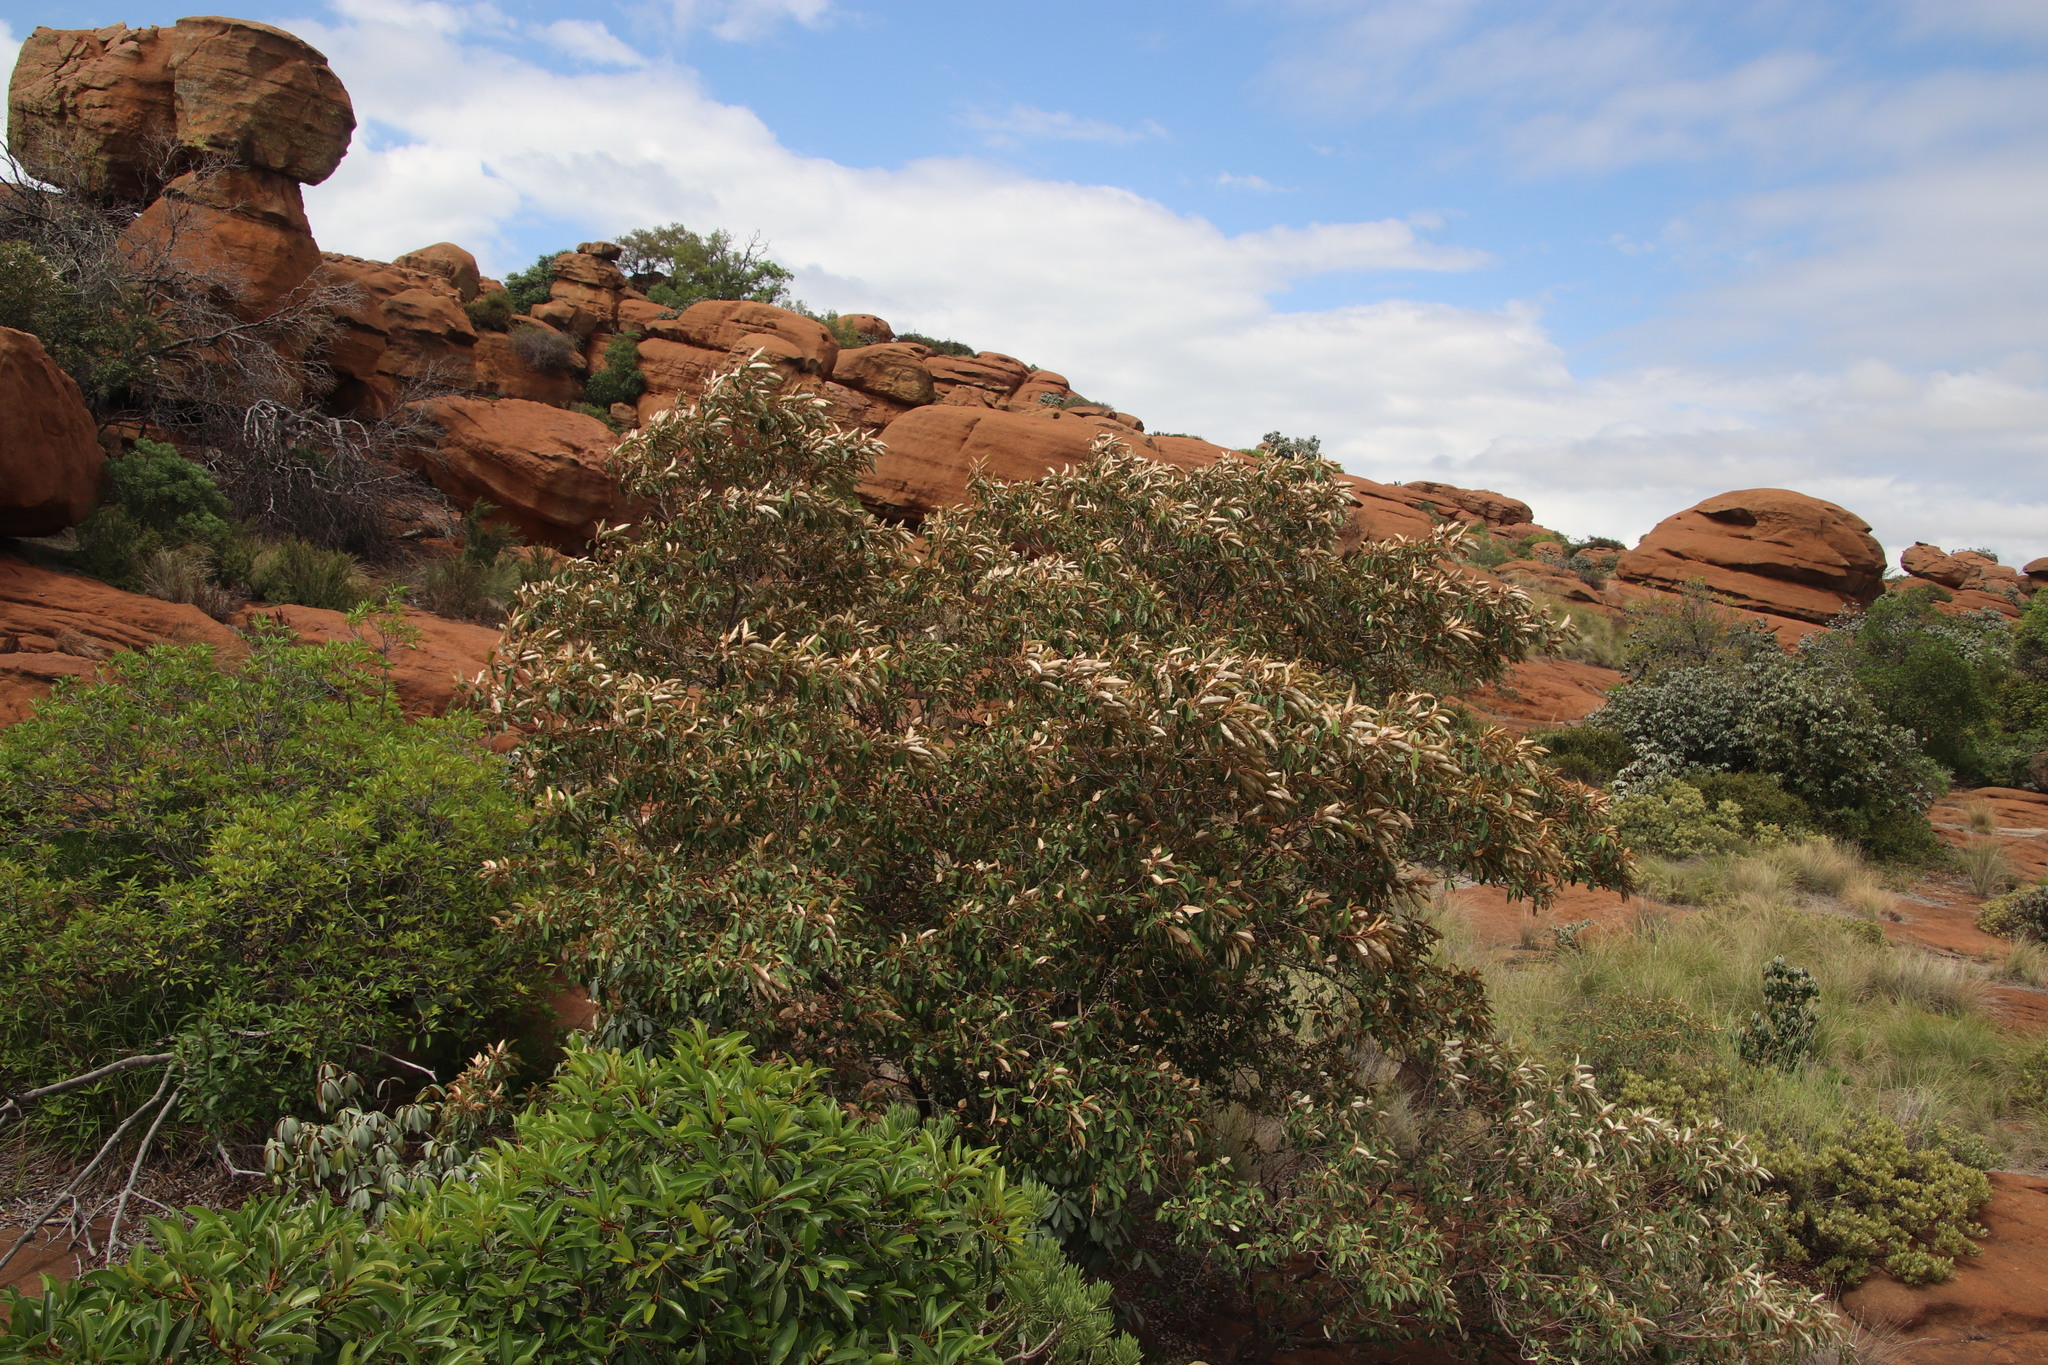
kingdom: Plantae
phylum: Tracheophyta
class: Magnoliopsida
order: Malpighiales
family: Euphorbiaceae
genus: Croton
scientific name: Croton gratissimus
